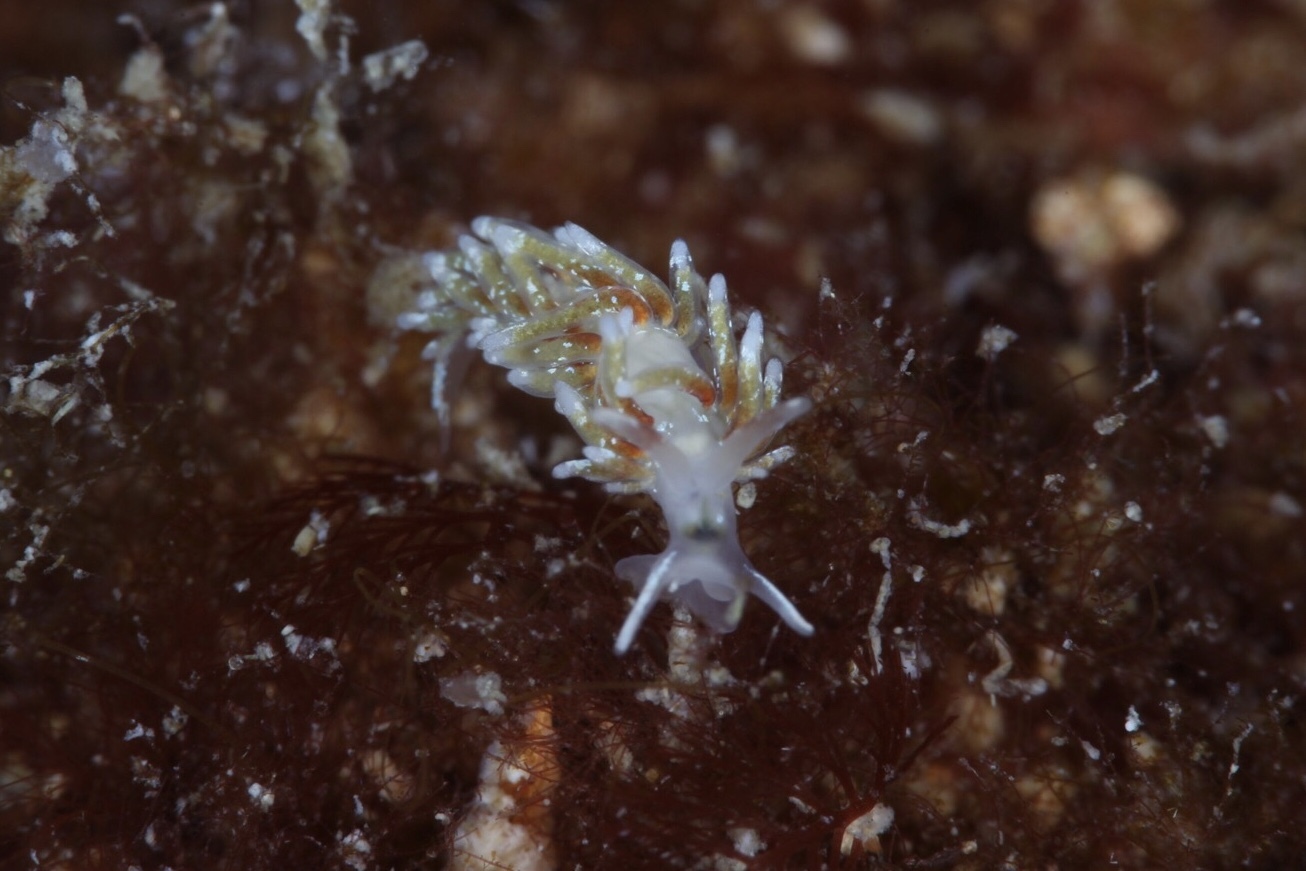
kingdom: Animalia
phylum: Mollusca
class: Gastropoda
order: Nudibranchia
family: Trinchesiidae
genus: Rubramoena
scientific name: Rubramoena rubescens
